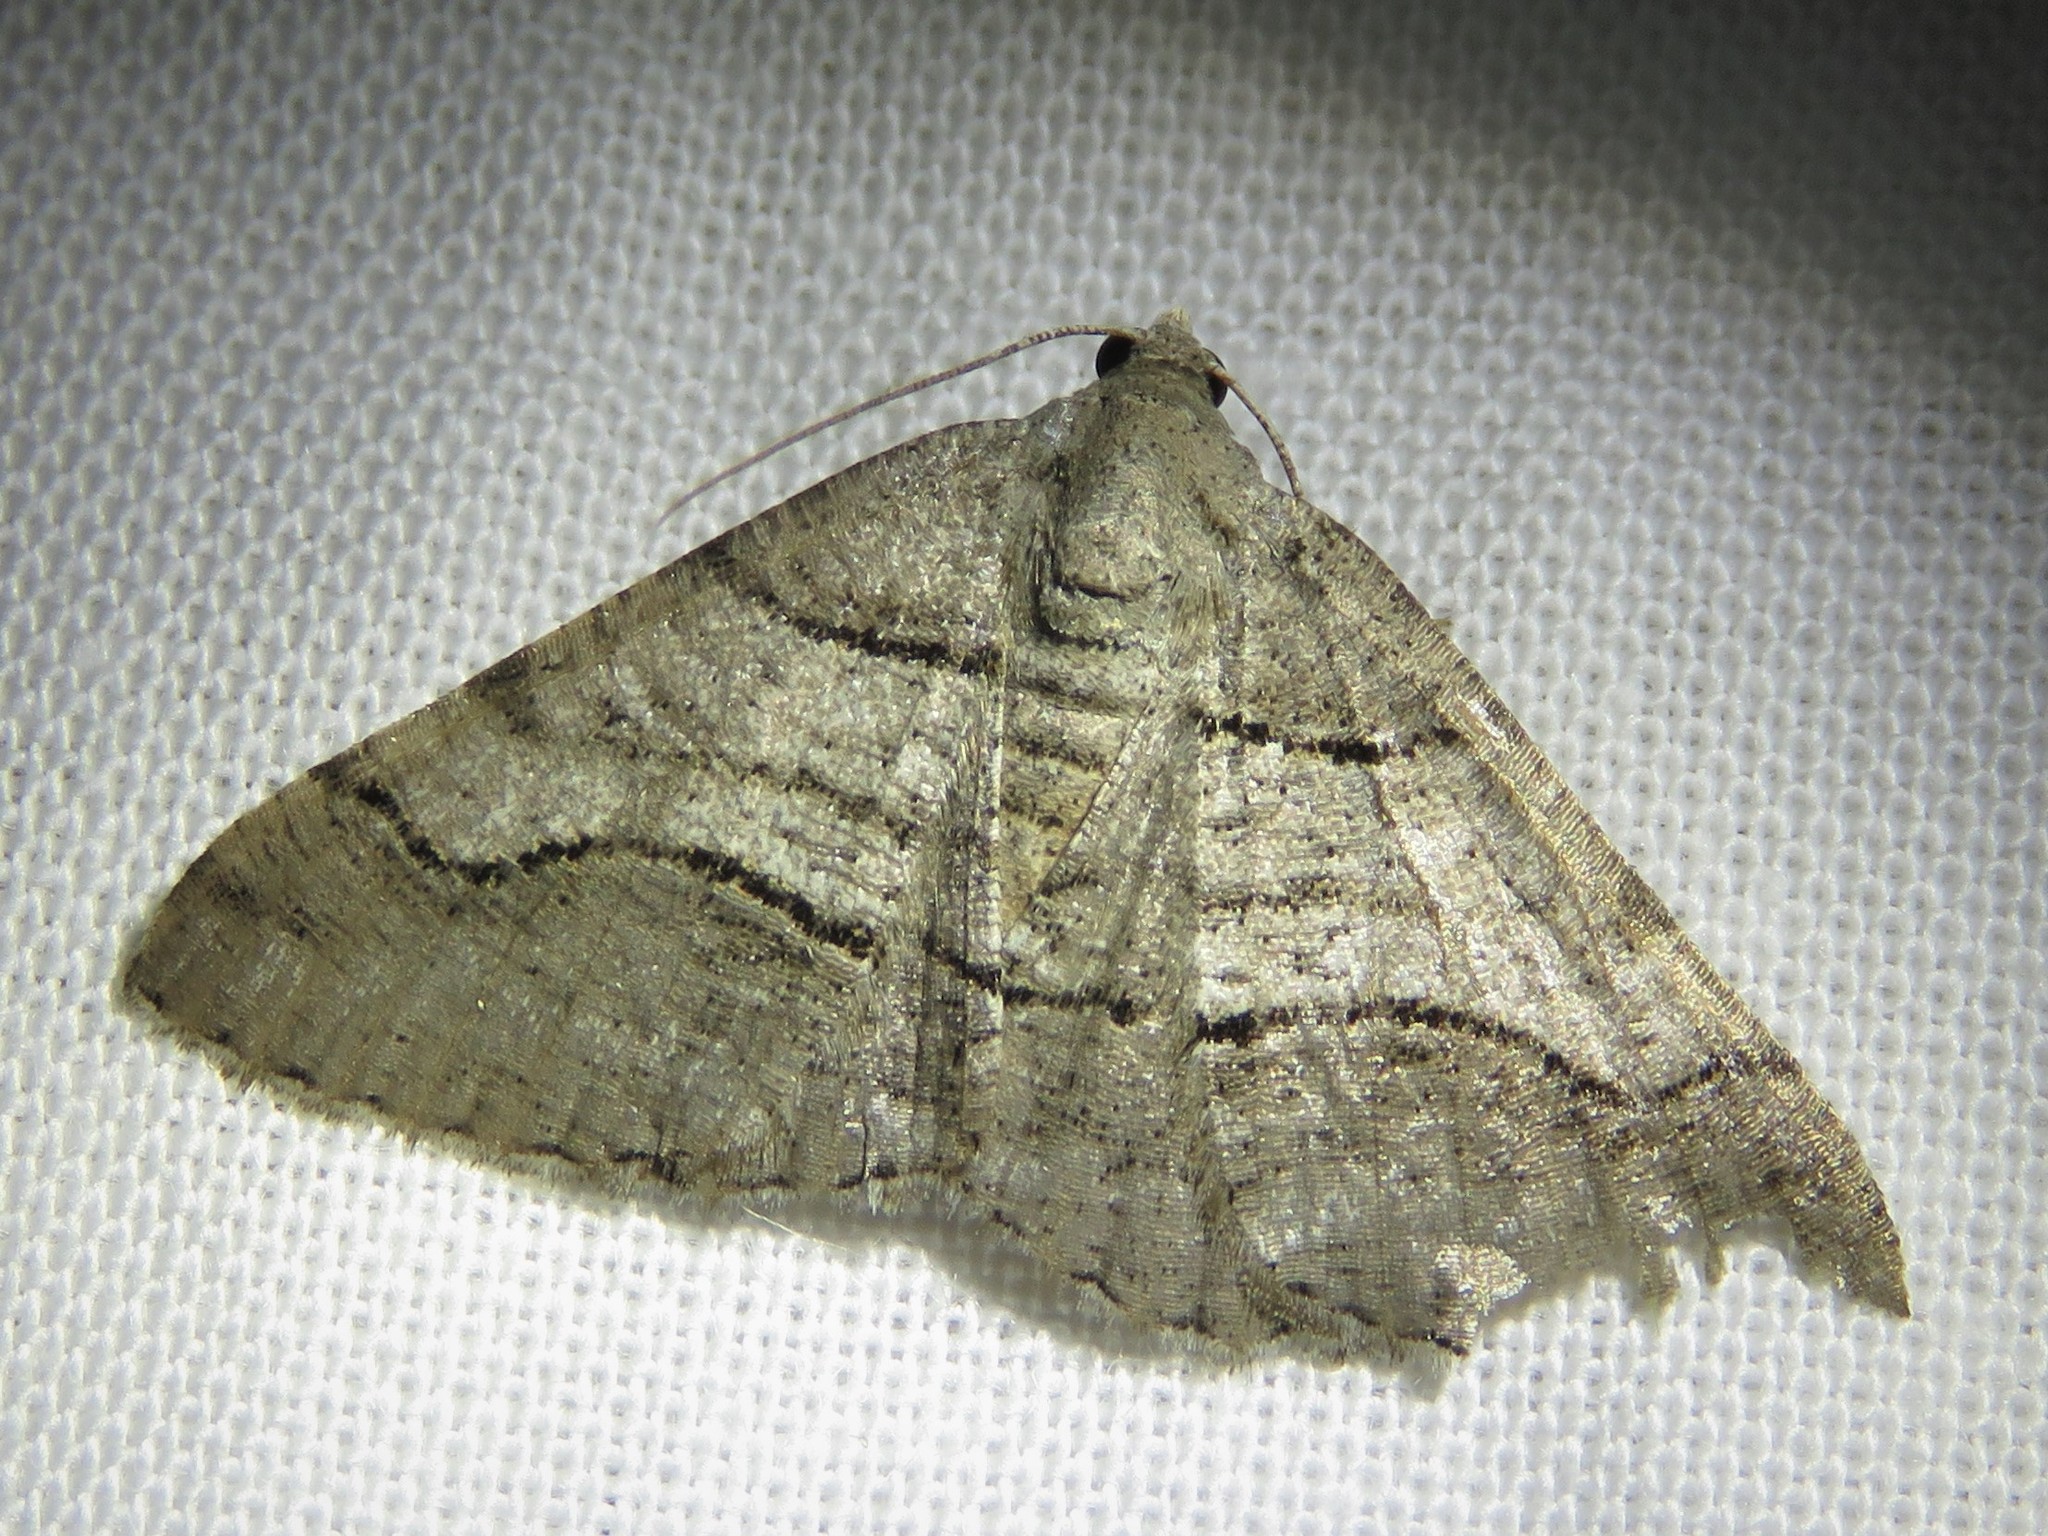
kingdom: Animalia
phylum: Arthropoda
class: Insecta
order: Lepidoptera
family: Geometridae
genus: Digrammia
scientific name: Digrammia continuata
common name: Curve-lined angle
